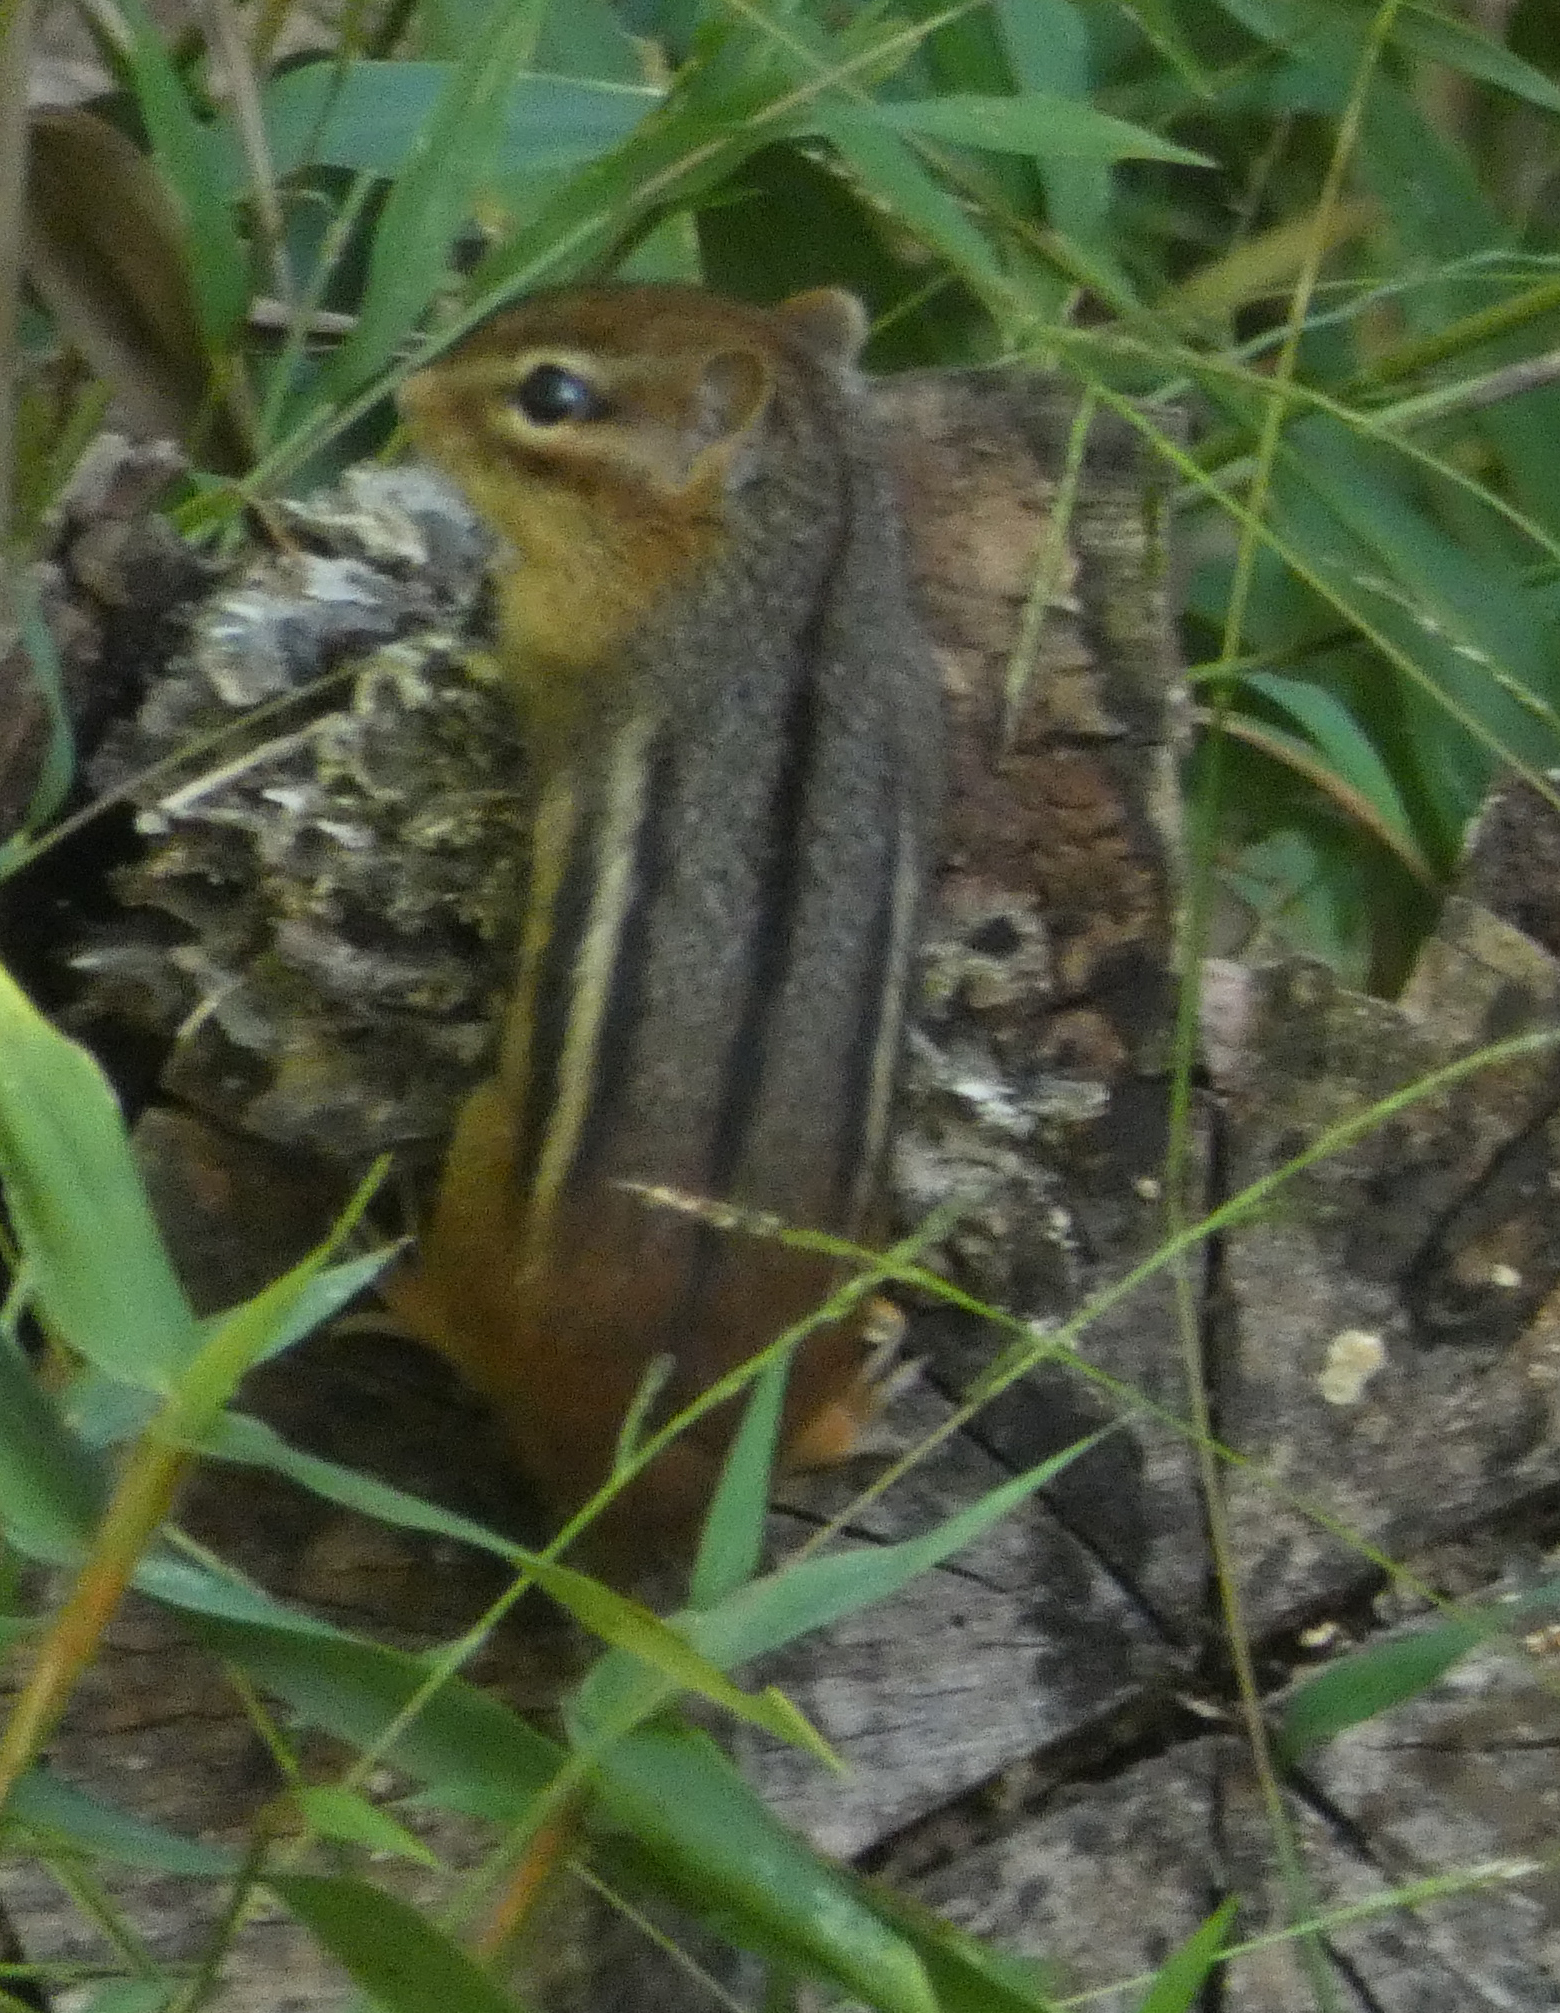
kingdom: Animalia
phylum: Chordata
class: Mammalia
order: Rodentia
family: Sciuridae
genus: Tamias
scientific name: Tamias striatus
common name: Eastern chipmunk
